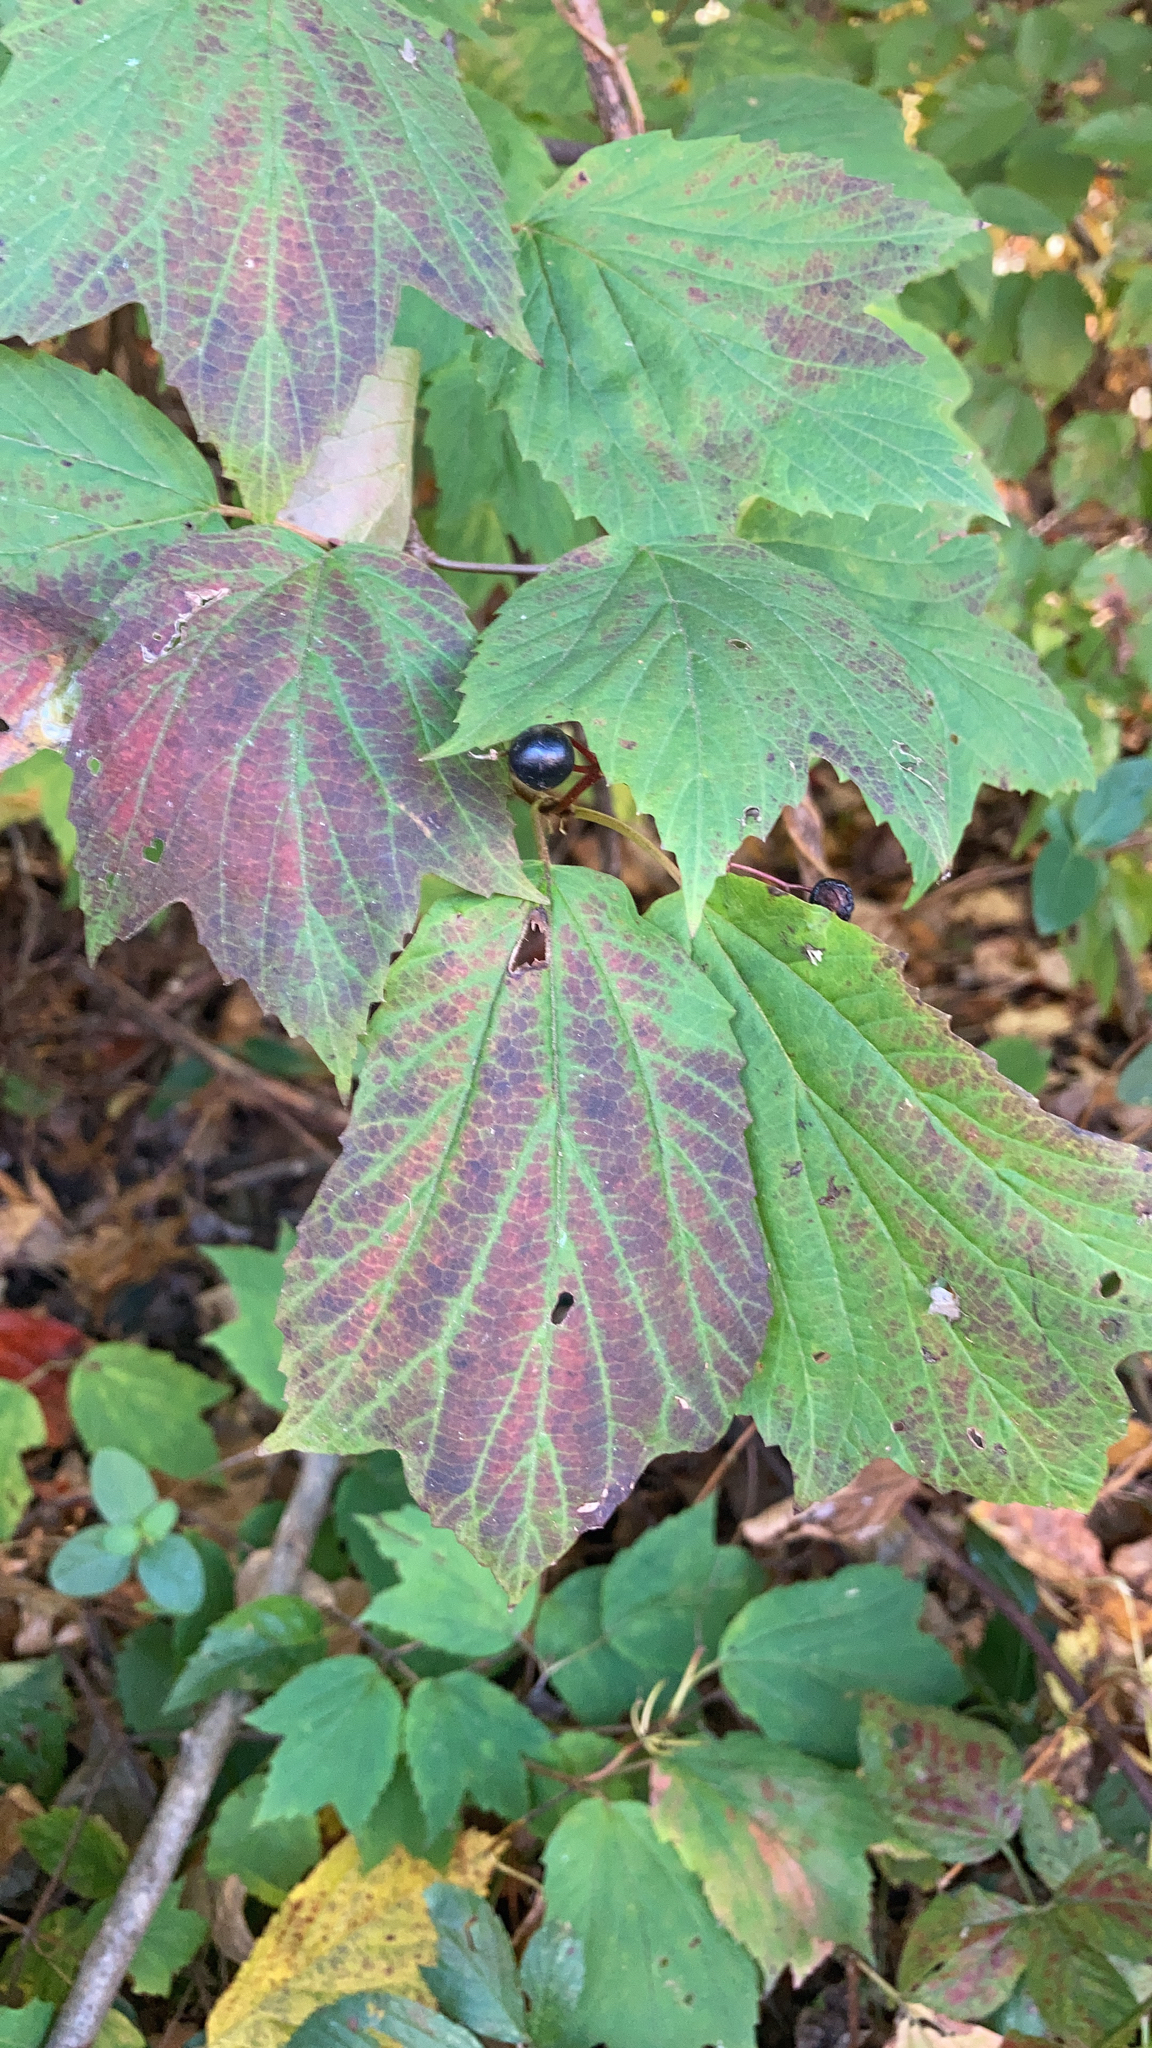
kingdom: Plantae
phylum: Tracheophyta
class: Magnoliopsida
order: Dipsacales
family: Viburnaceae
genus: Viburnum
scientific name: Viburnum acerifolium
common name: Dockmackie
